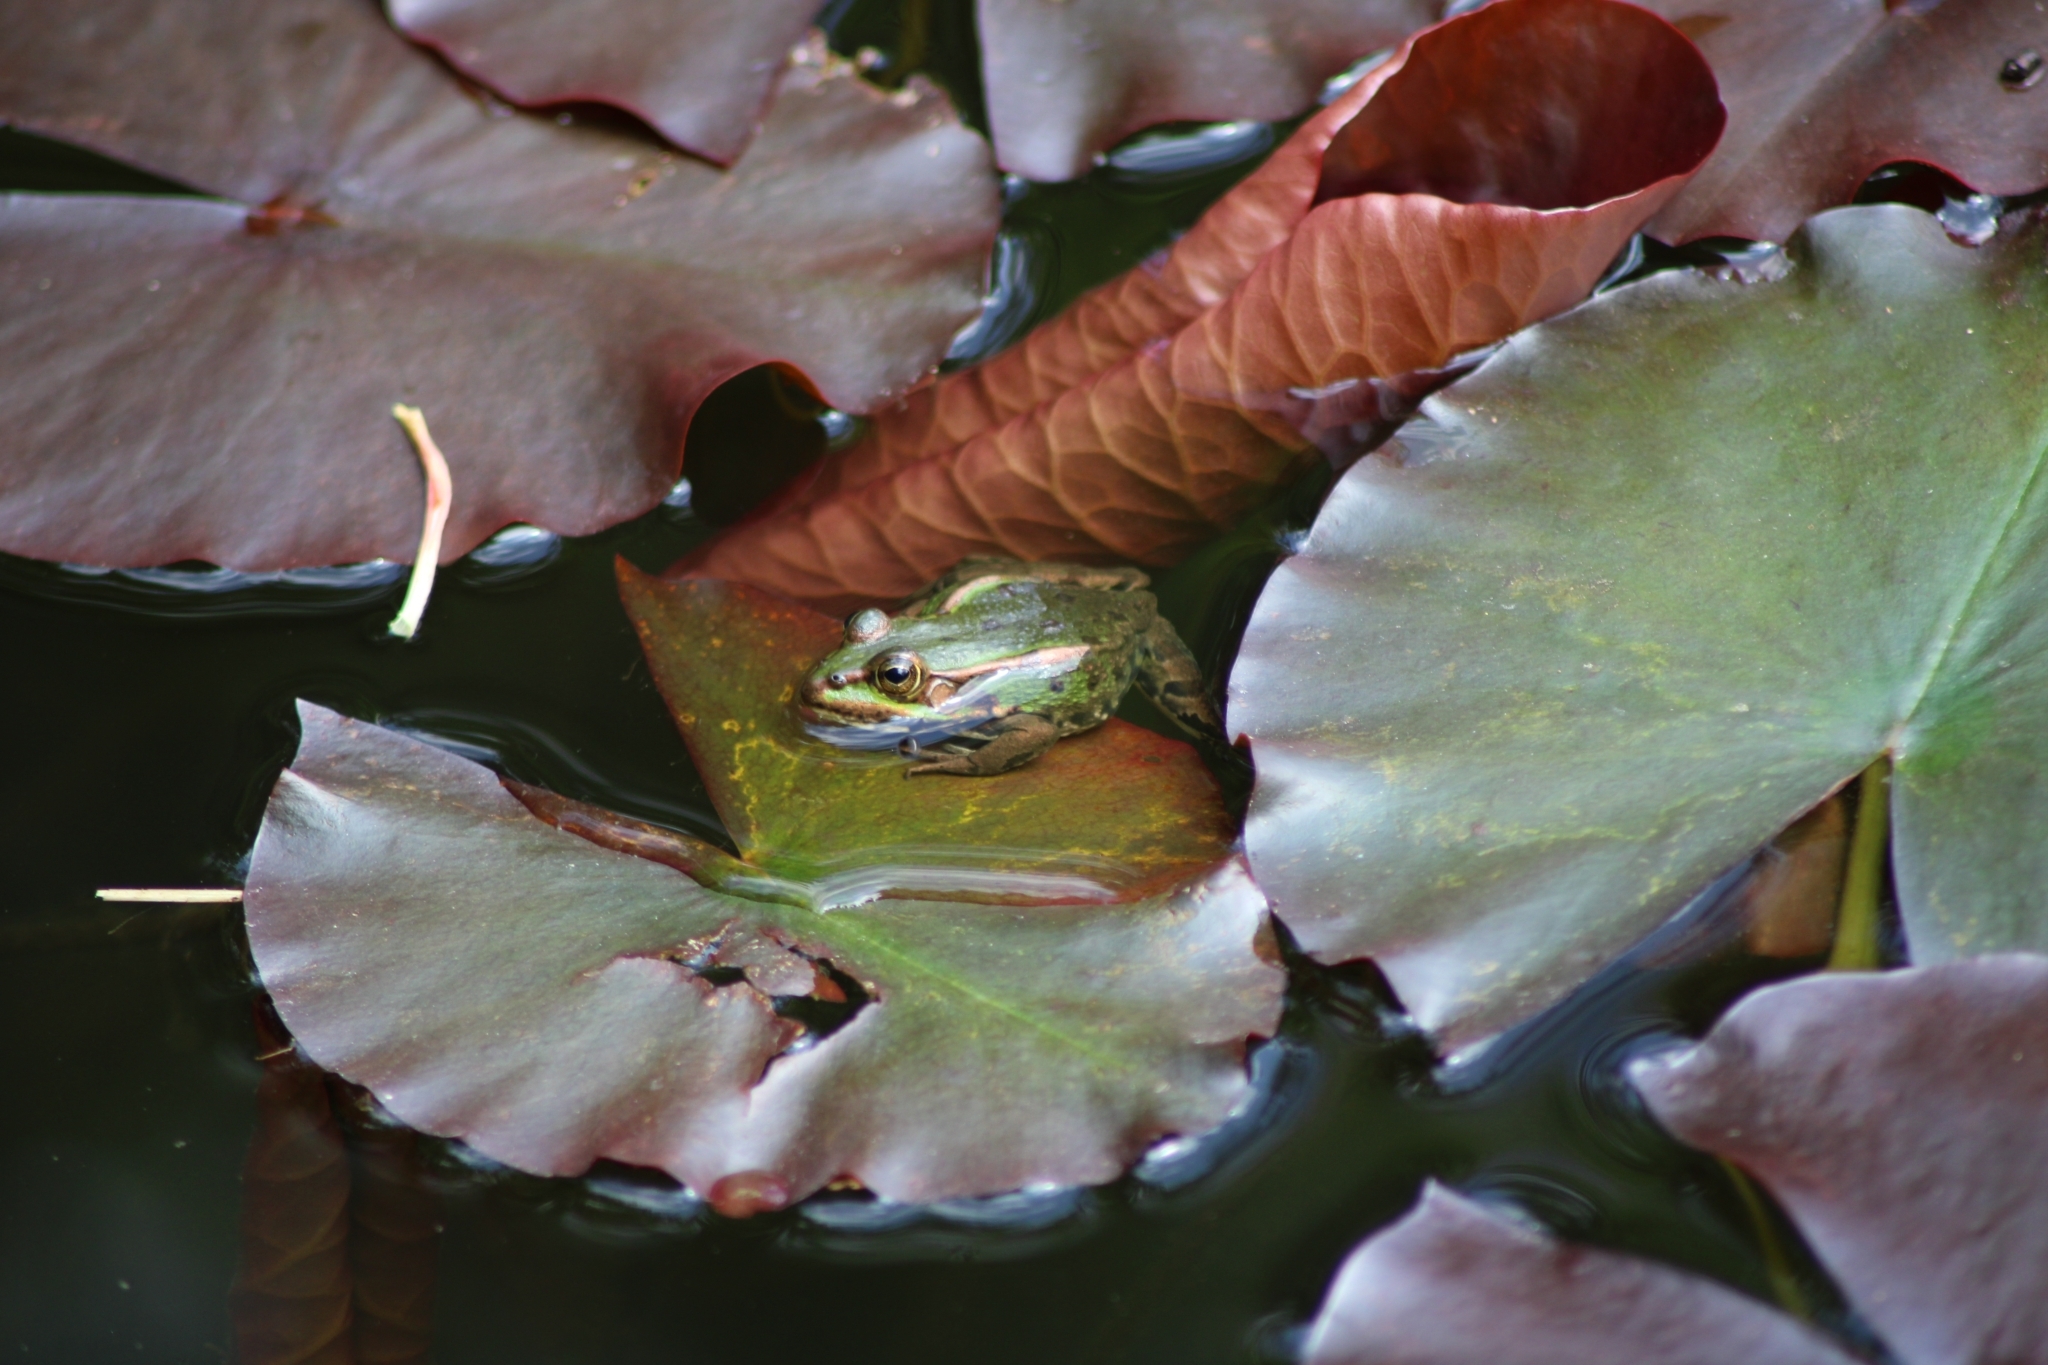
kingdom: Animalia
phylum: Chordata
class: Amphibia
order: Anura
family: Ranidae
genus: Pelophylax
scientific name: Pelophylax
